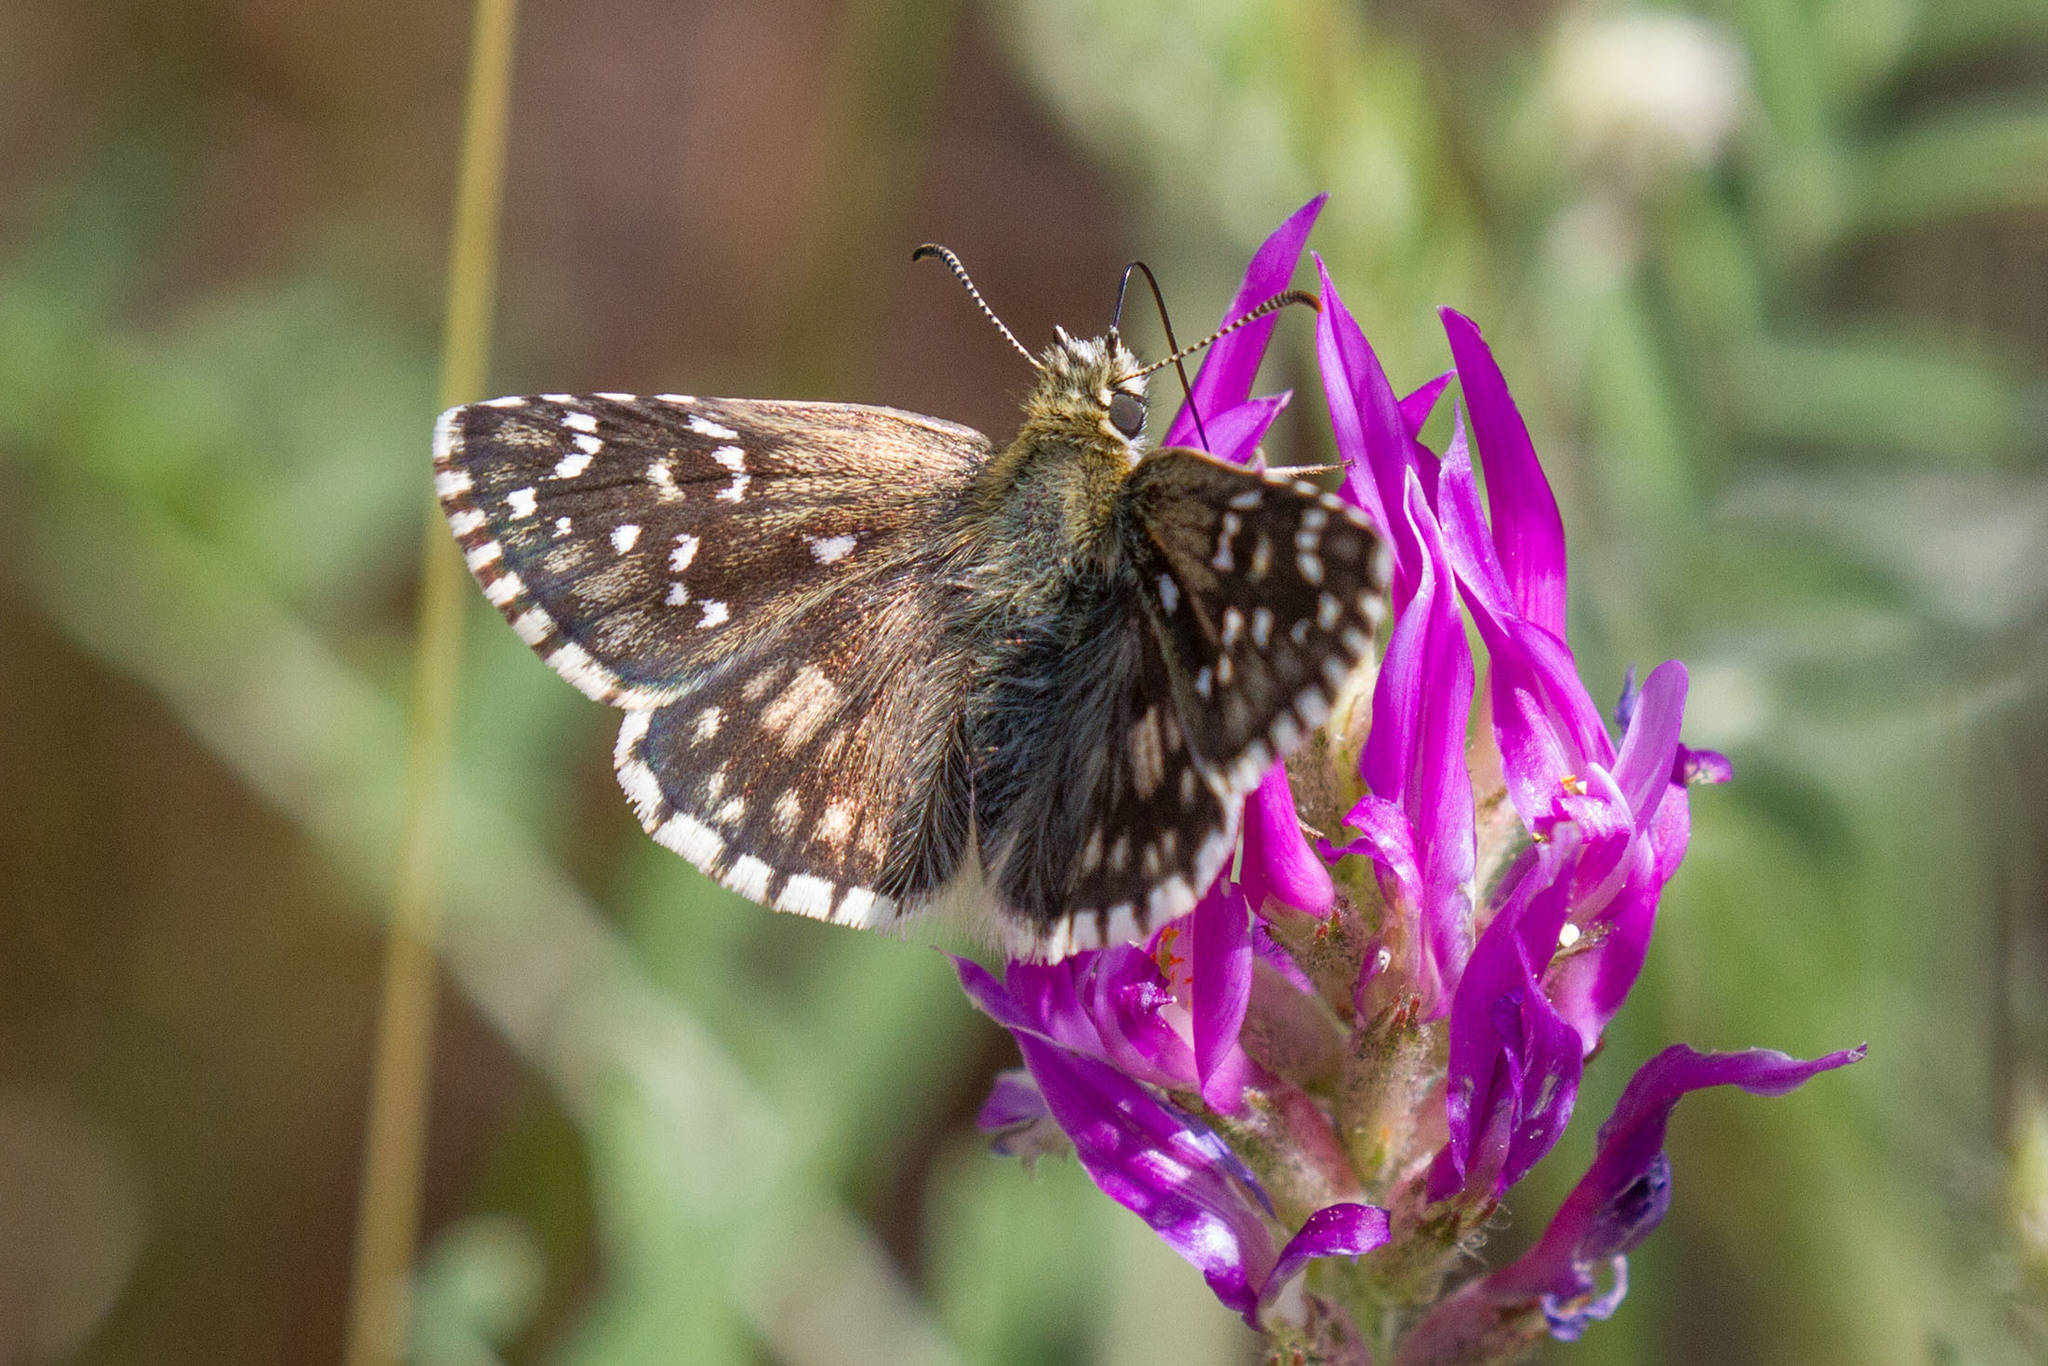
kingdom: Animalia
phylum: Arthropoda
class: Insecta
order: Lepidoptera
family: Hesperiidae
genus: Pyrgus
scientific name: Pyrgus armoricanus
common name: Oberthür's grizzled skipper
